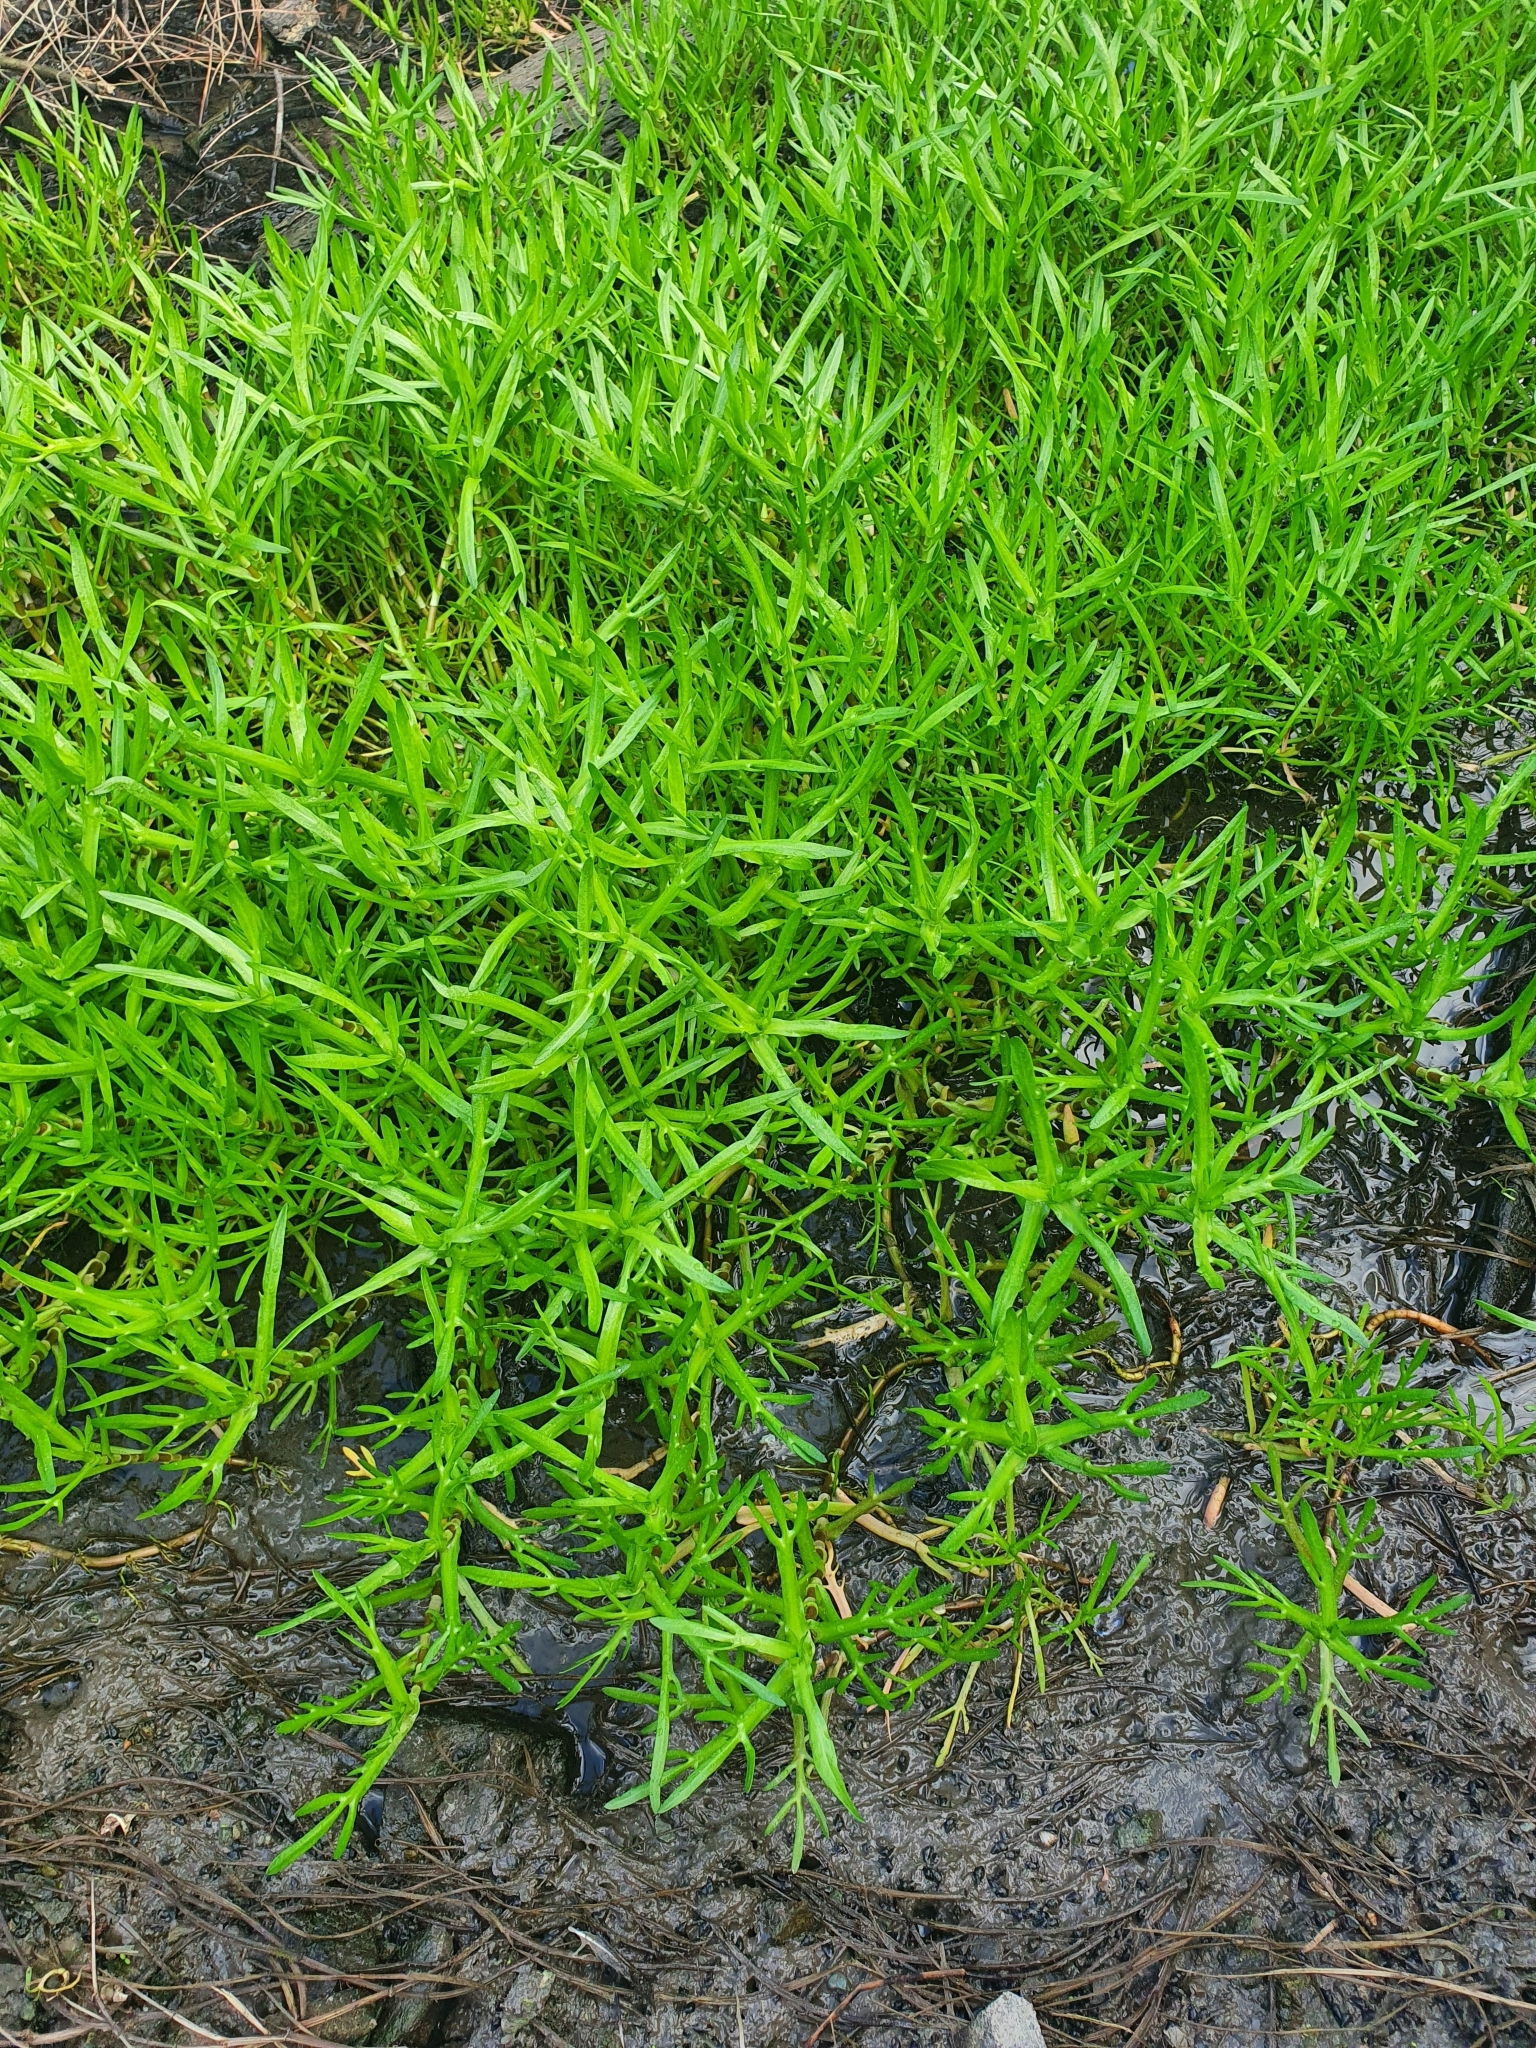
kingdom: Plantae
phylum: Tracheophyta
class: Magnoliopsida
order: Asterales
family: Asteraceae
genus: Cotula
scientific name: Cotula coronopifolia
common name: Buttonweed
